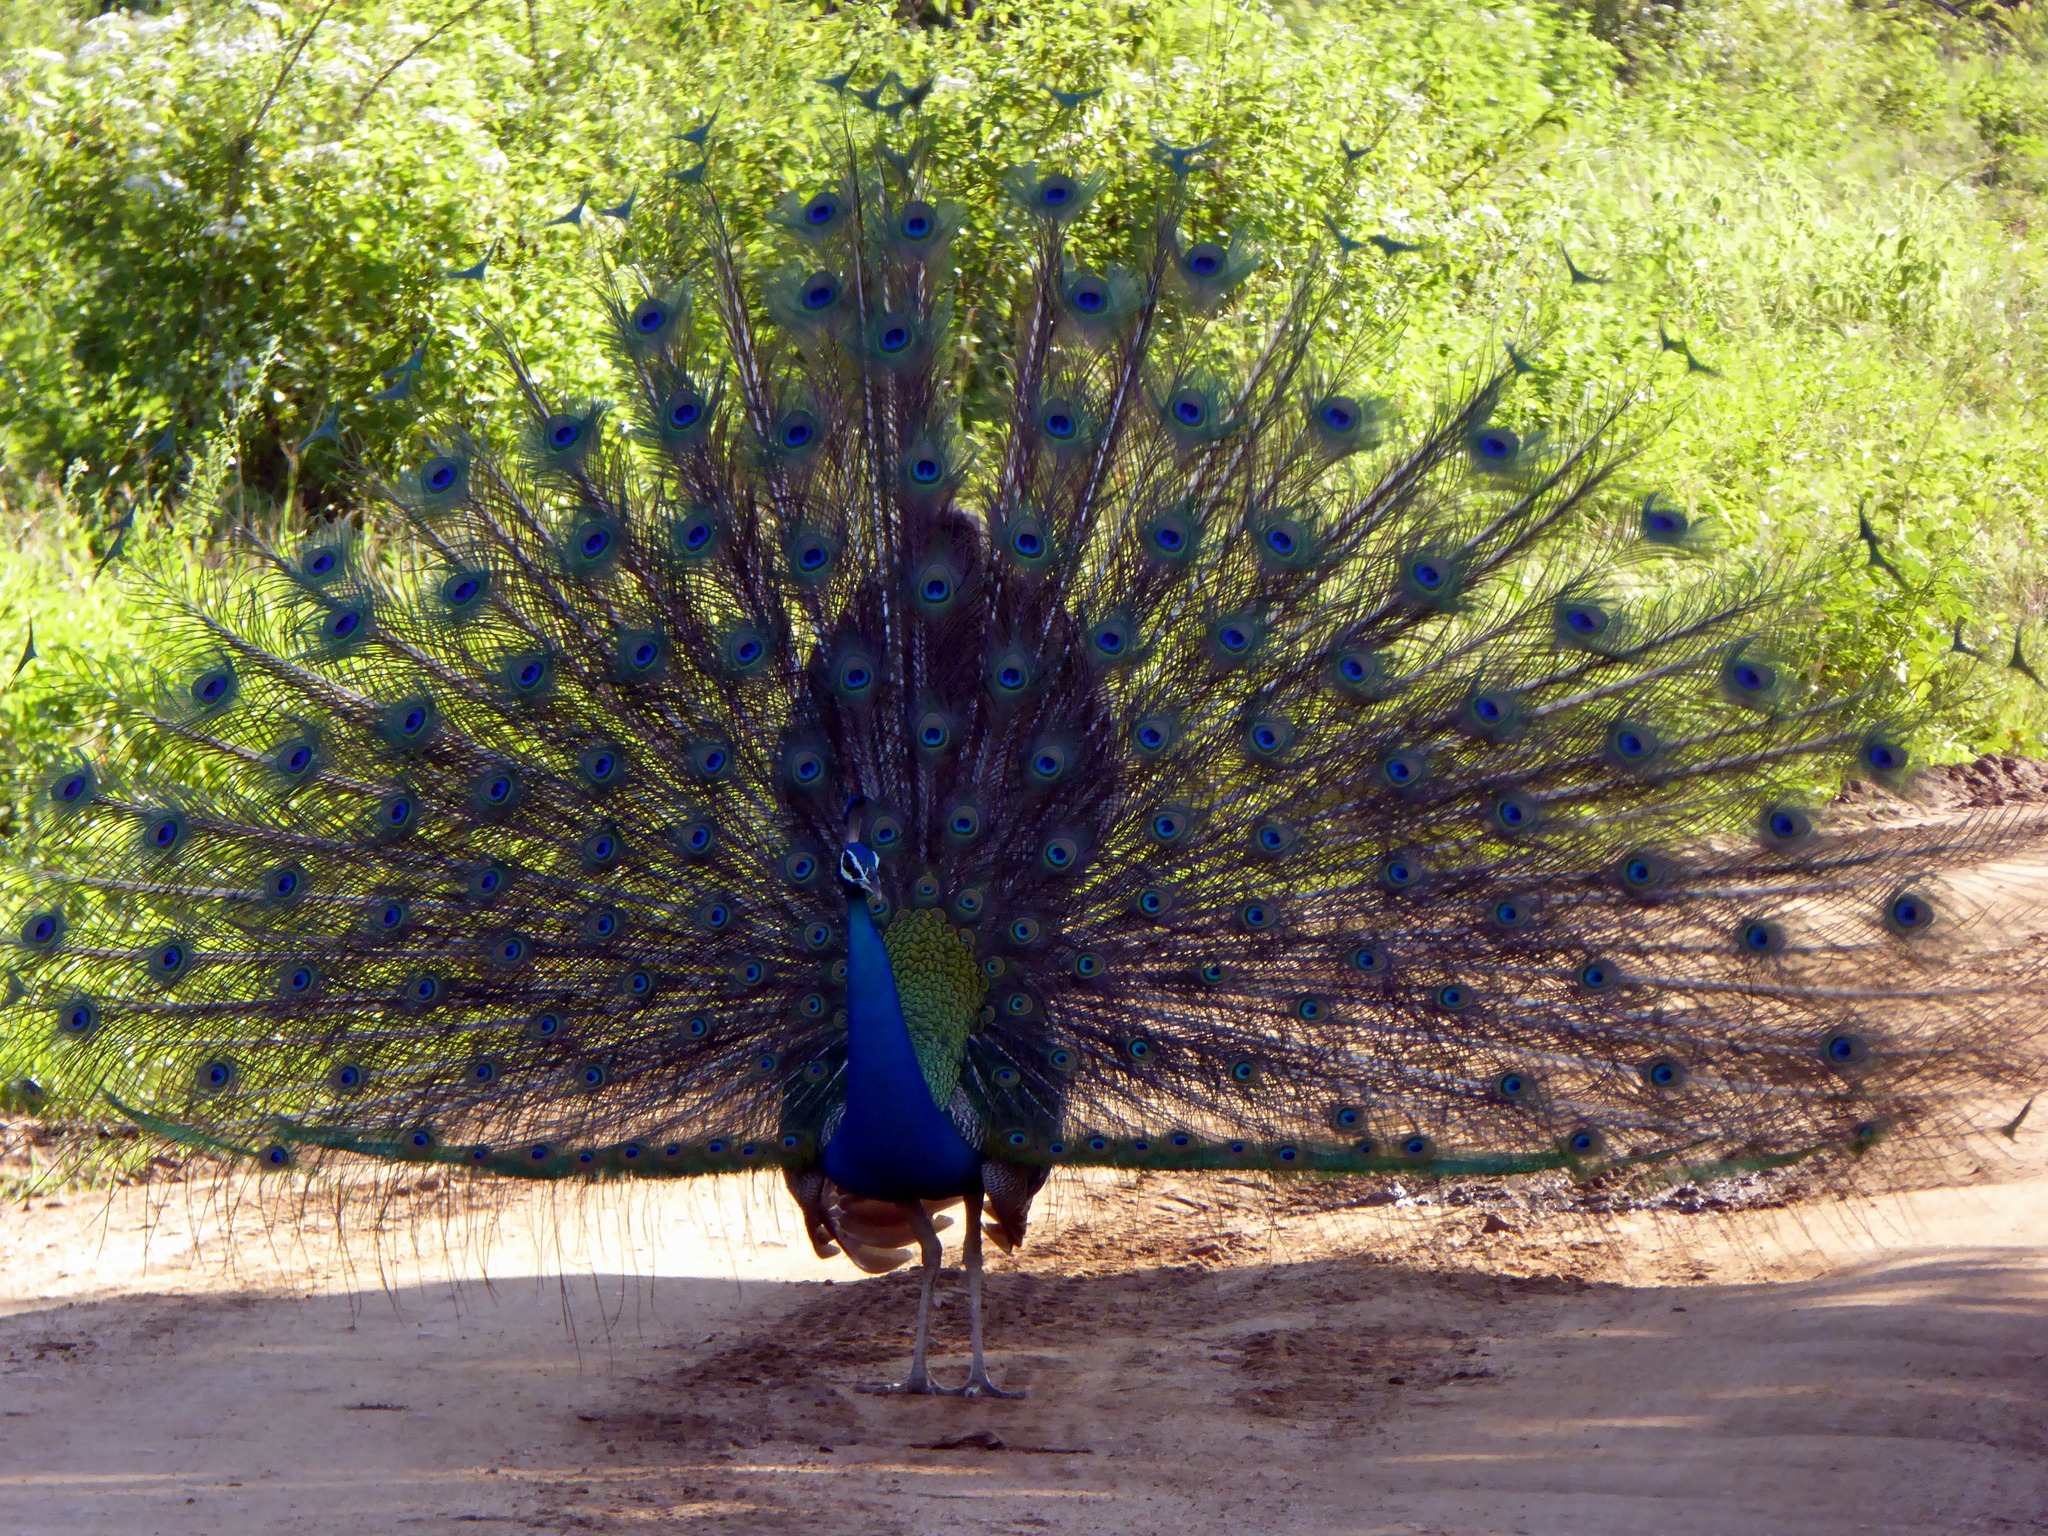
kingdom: Animalia
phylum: Chordata
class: Aves
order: Galliformes
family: Phasianidae
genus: Pavo
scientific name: Pavo cristatus
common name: Indian peafowl
